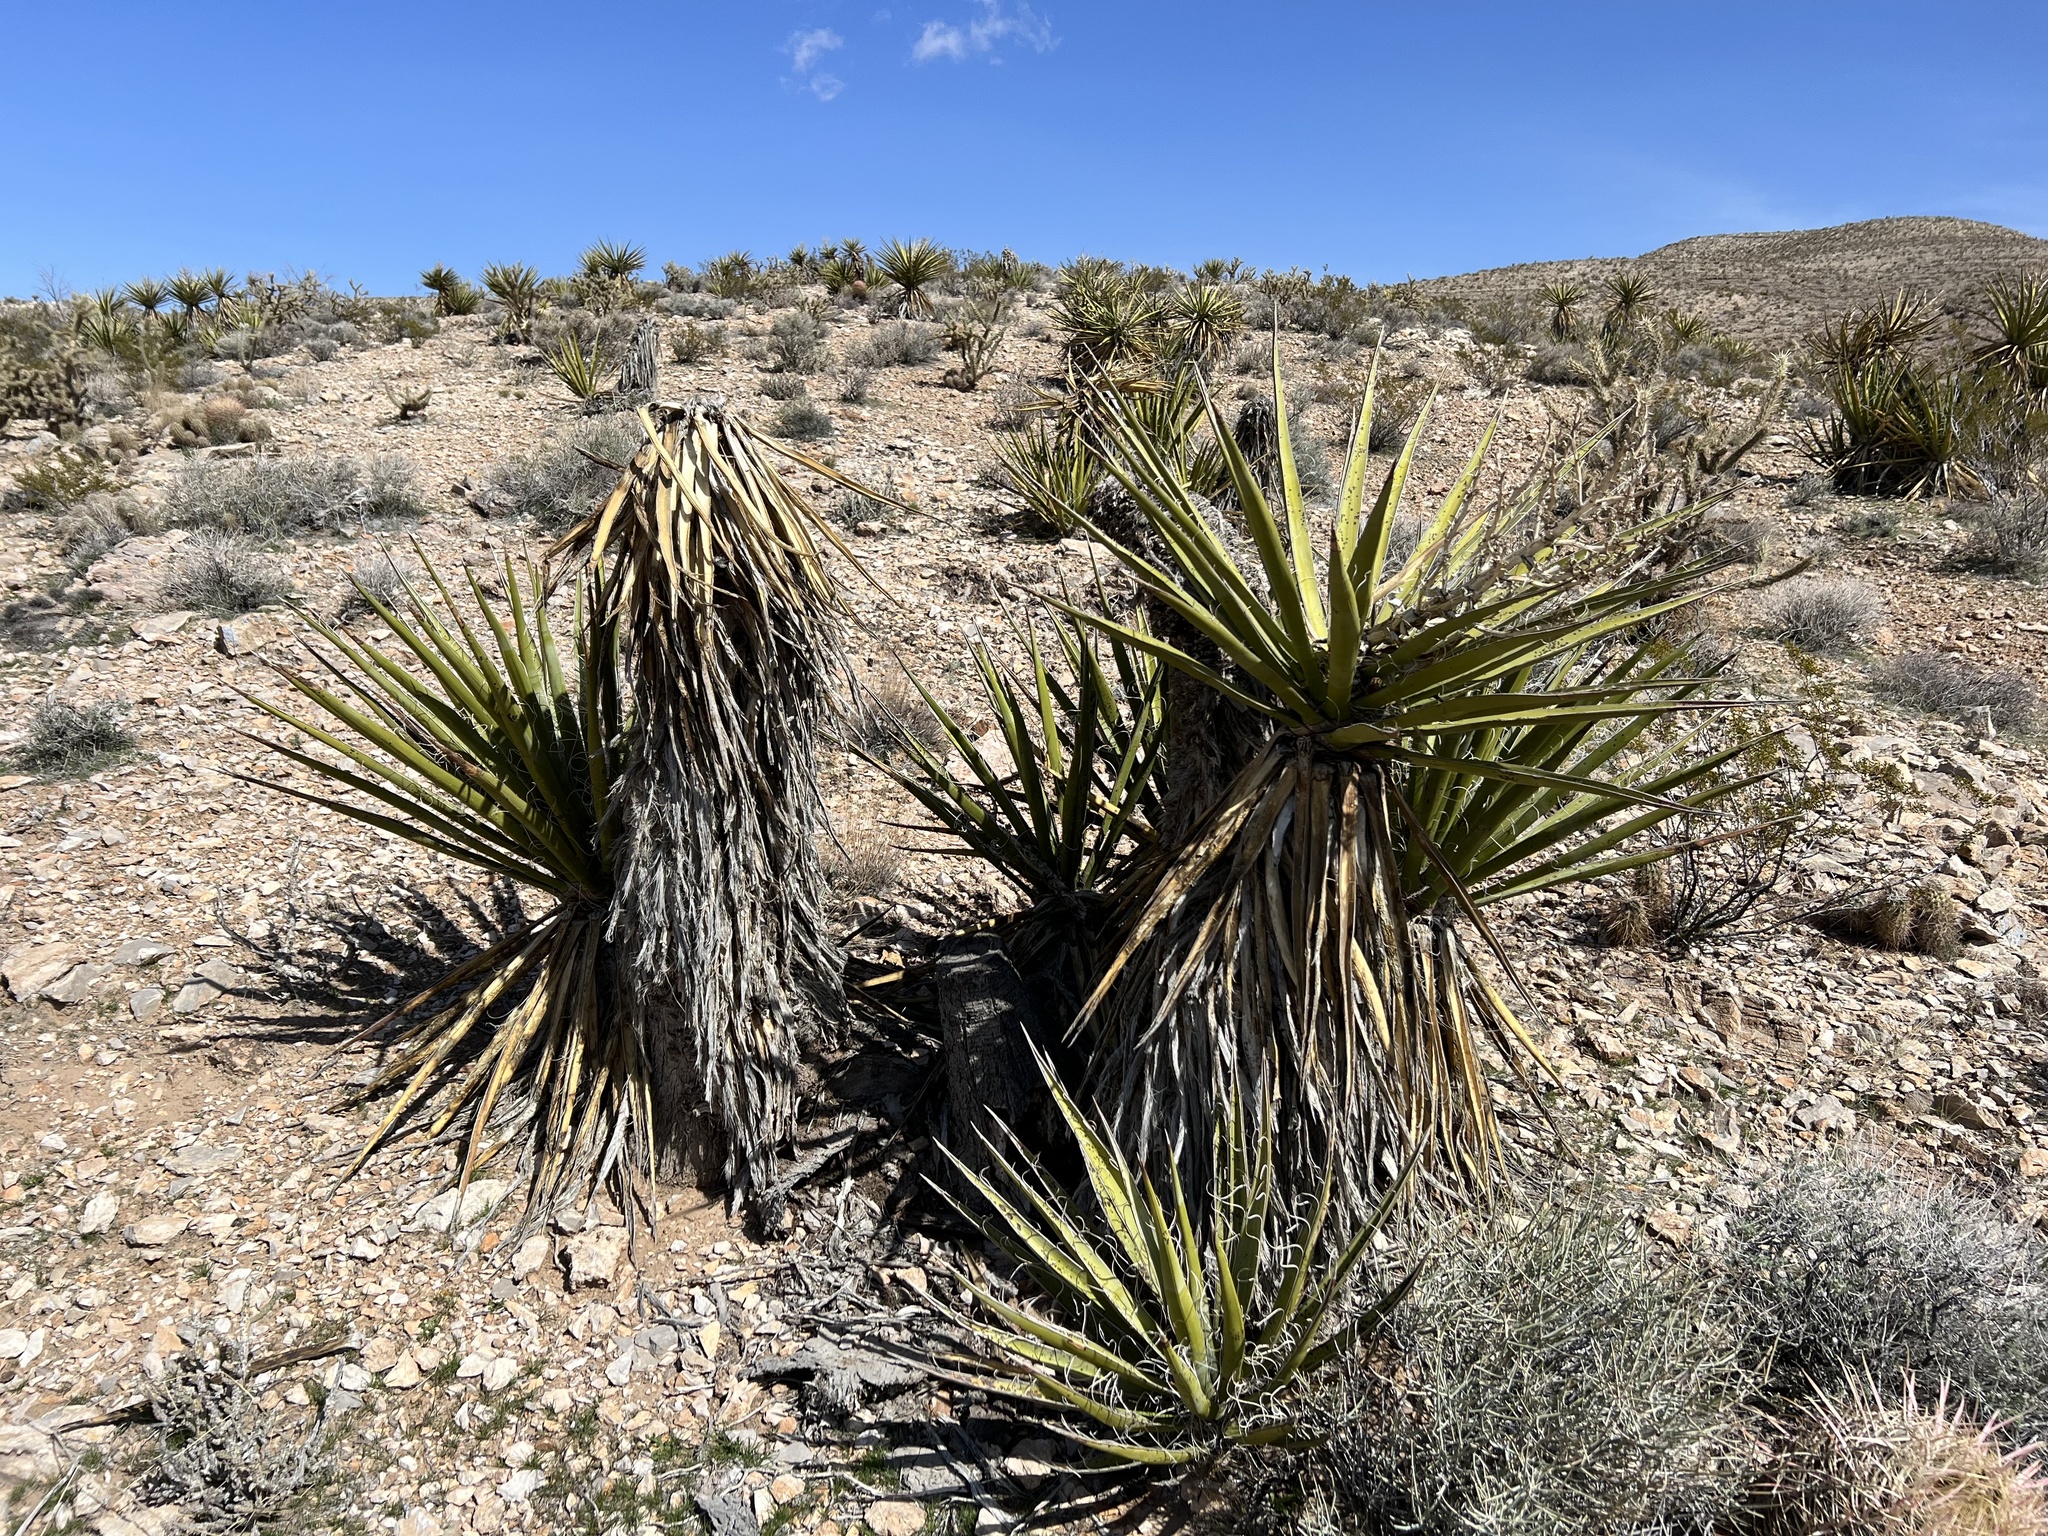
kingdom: Plantae
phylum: Tracheophyta
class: Liliopsida
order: Asparagales
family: Asparagaceae
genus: Yucca
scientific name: Yucca schidigera
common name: Mojave yucca
